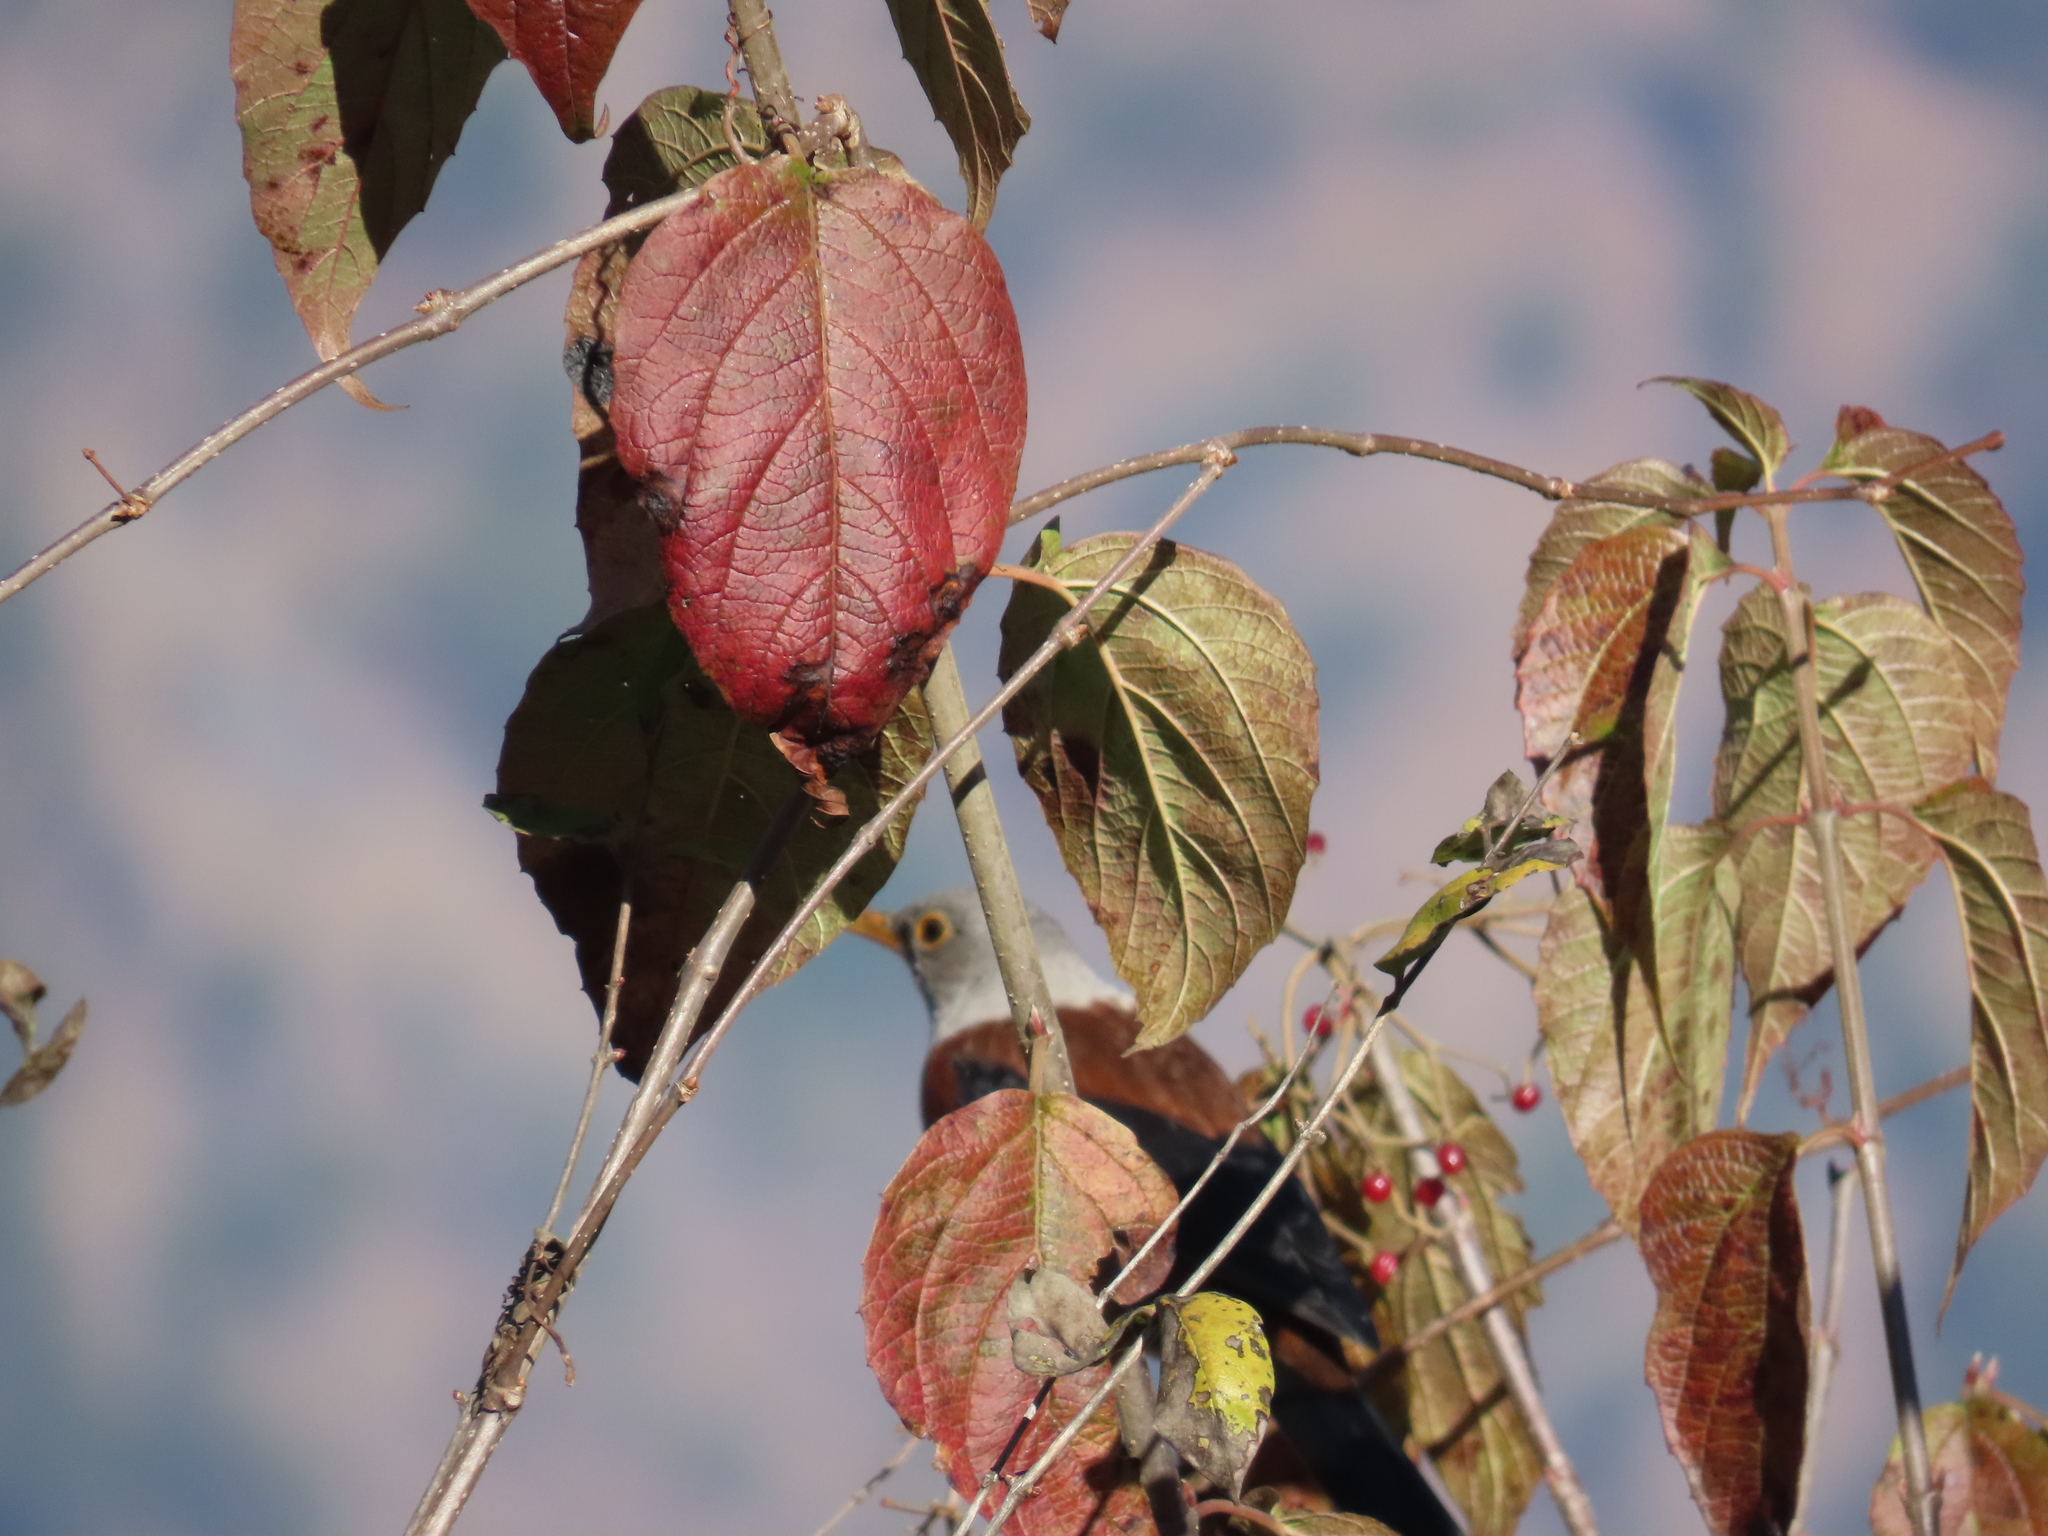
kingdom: Animalia
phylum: Chordata
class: Aves
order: Passeriformes
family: Turdidae
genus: Turdus
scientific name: Turdus rubrocanus
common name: Chestnut thrush
